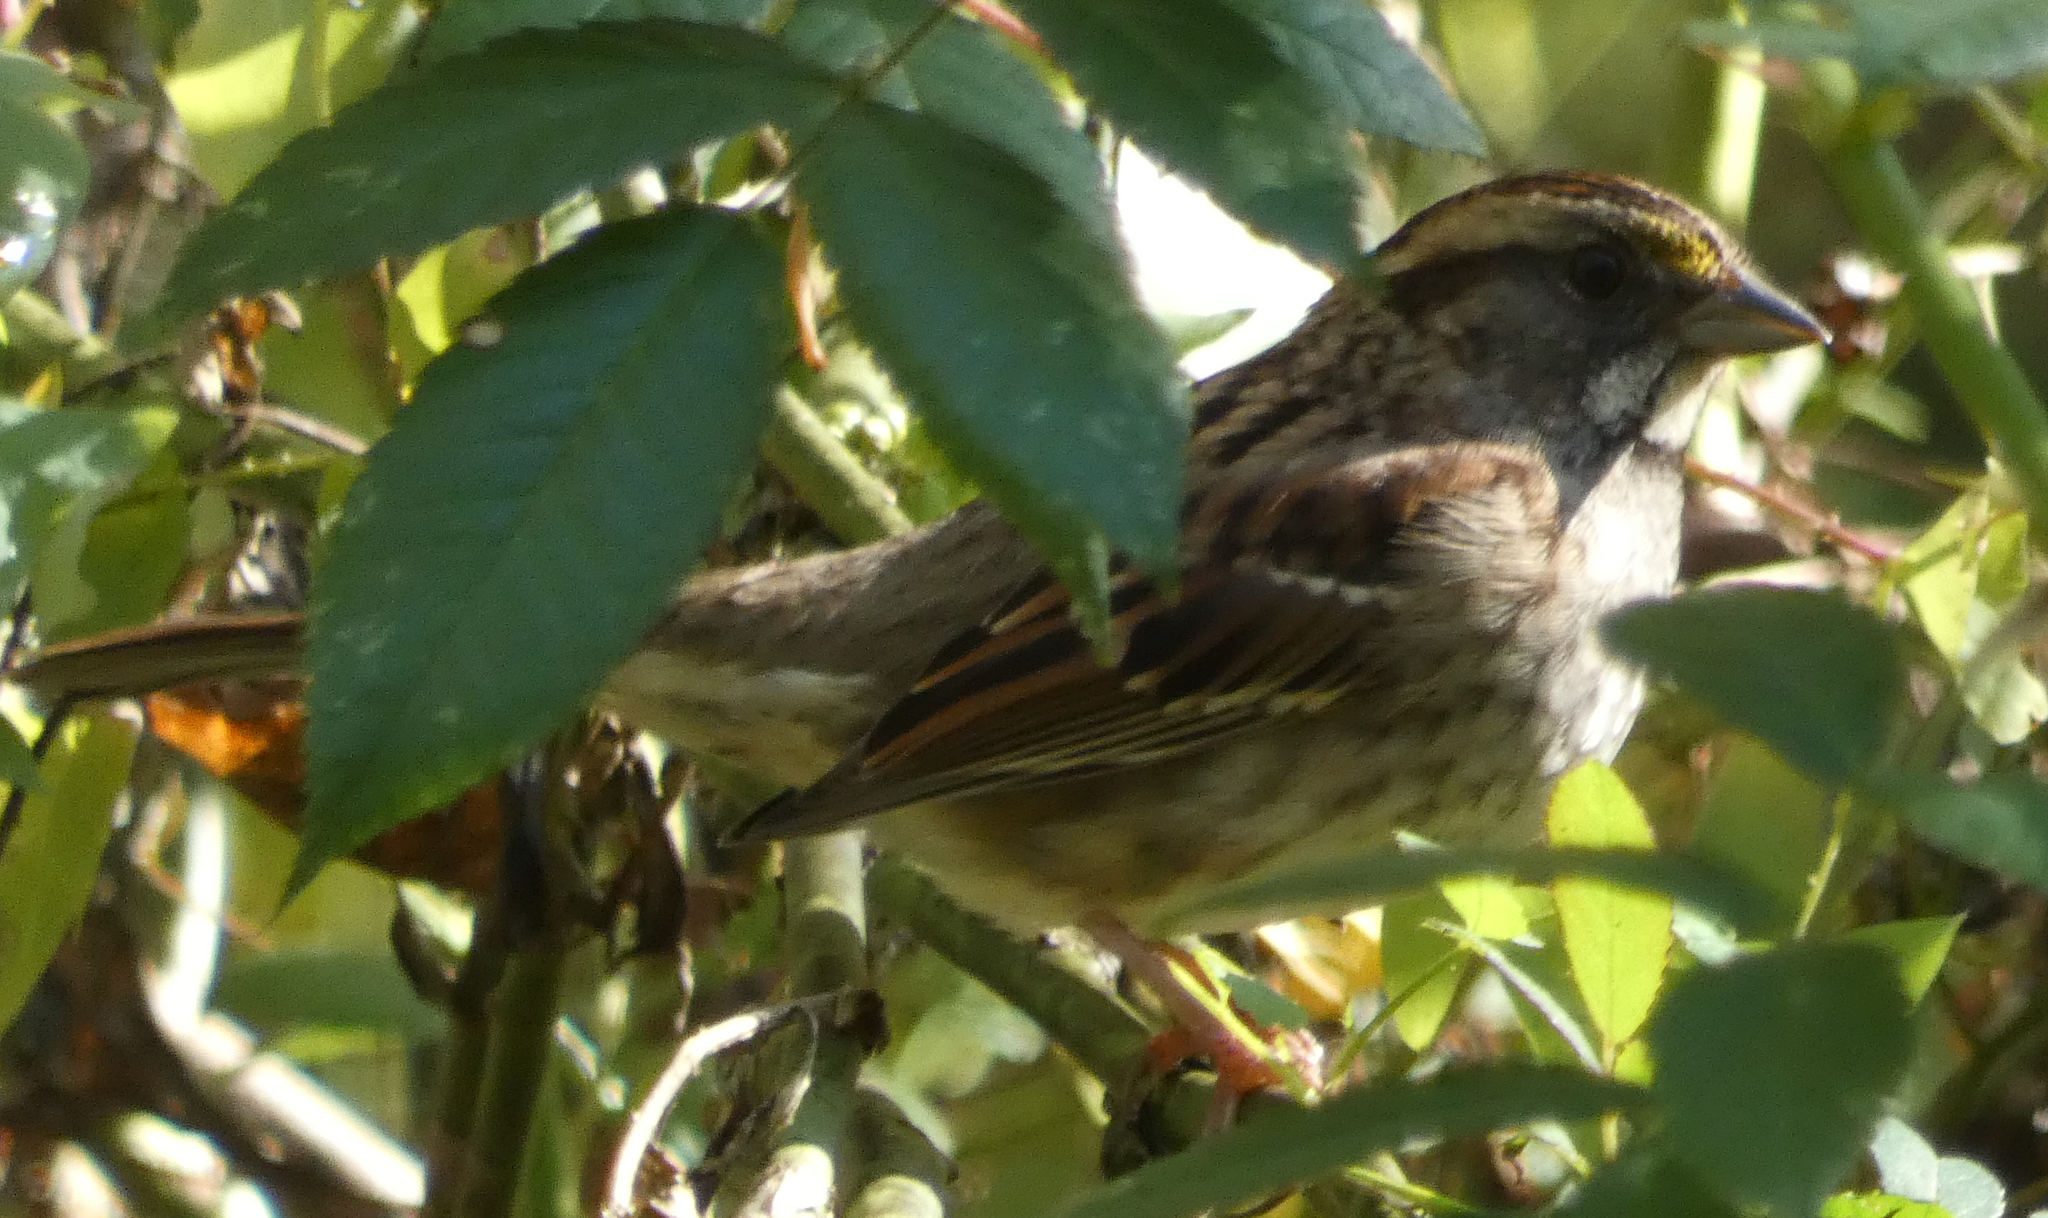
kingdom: Animalia
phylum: Chordata
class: Aves
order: Passeriformes
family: Passerellidae
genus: Zonotrichia
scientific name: Zonotrichia albicollis
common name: White-throated sparrow
